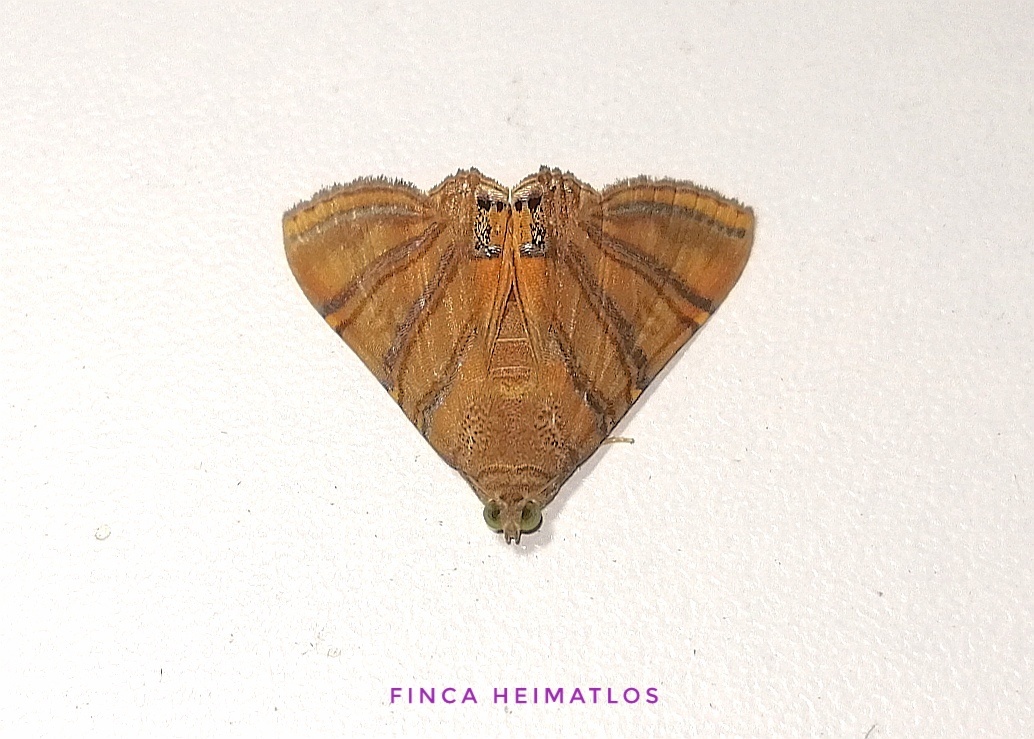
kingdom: Animalia
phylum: Arthropoda
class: Insecta
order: Lepidoptera
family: Erebidae
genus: Eulepidotis
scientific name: Eulepidotis inclyta
